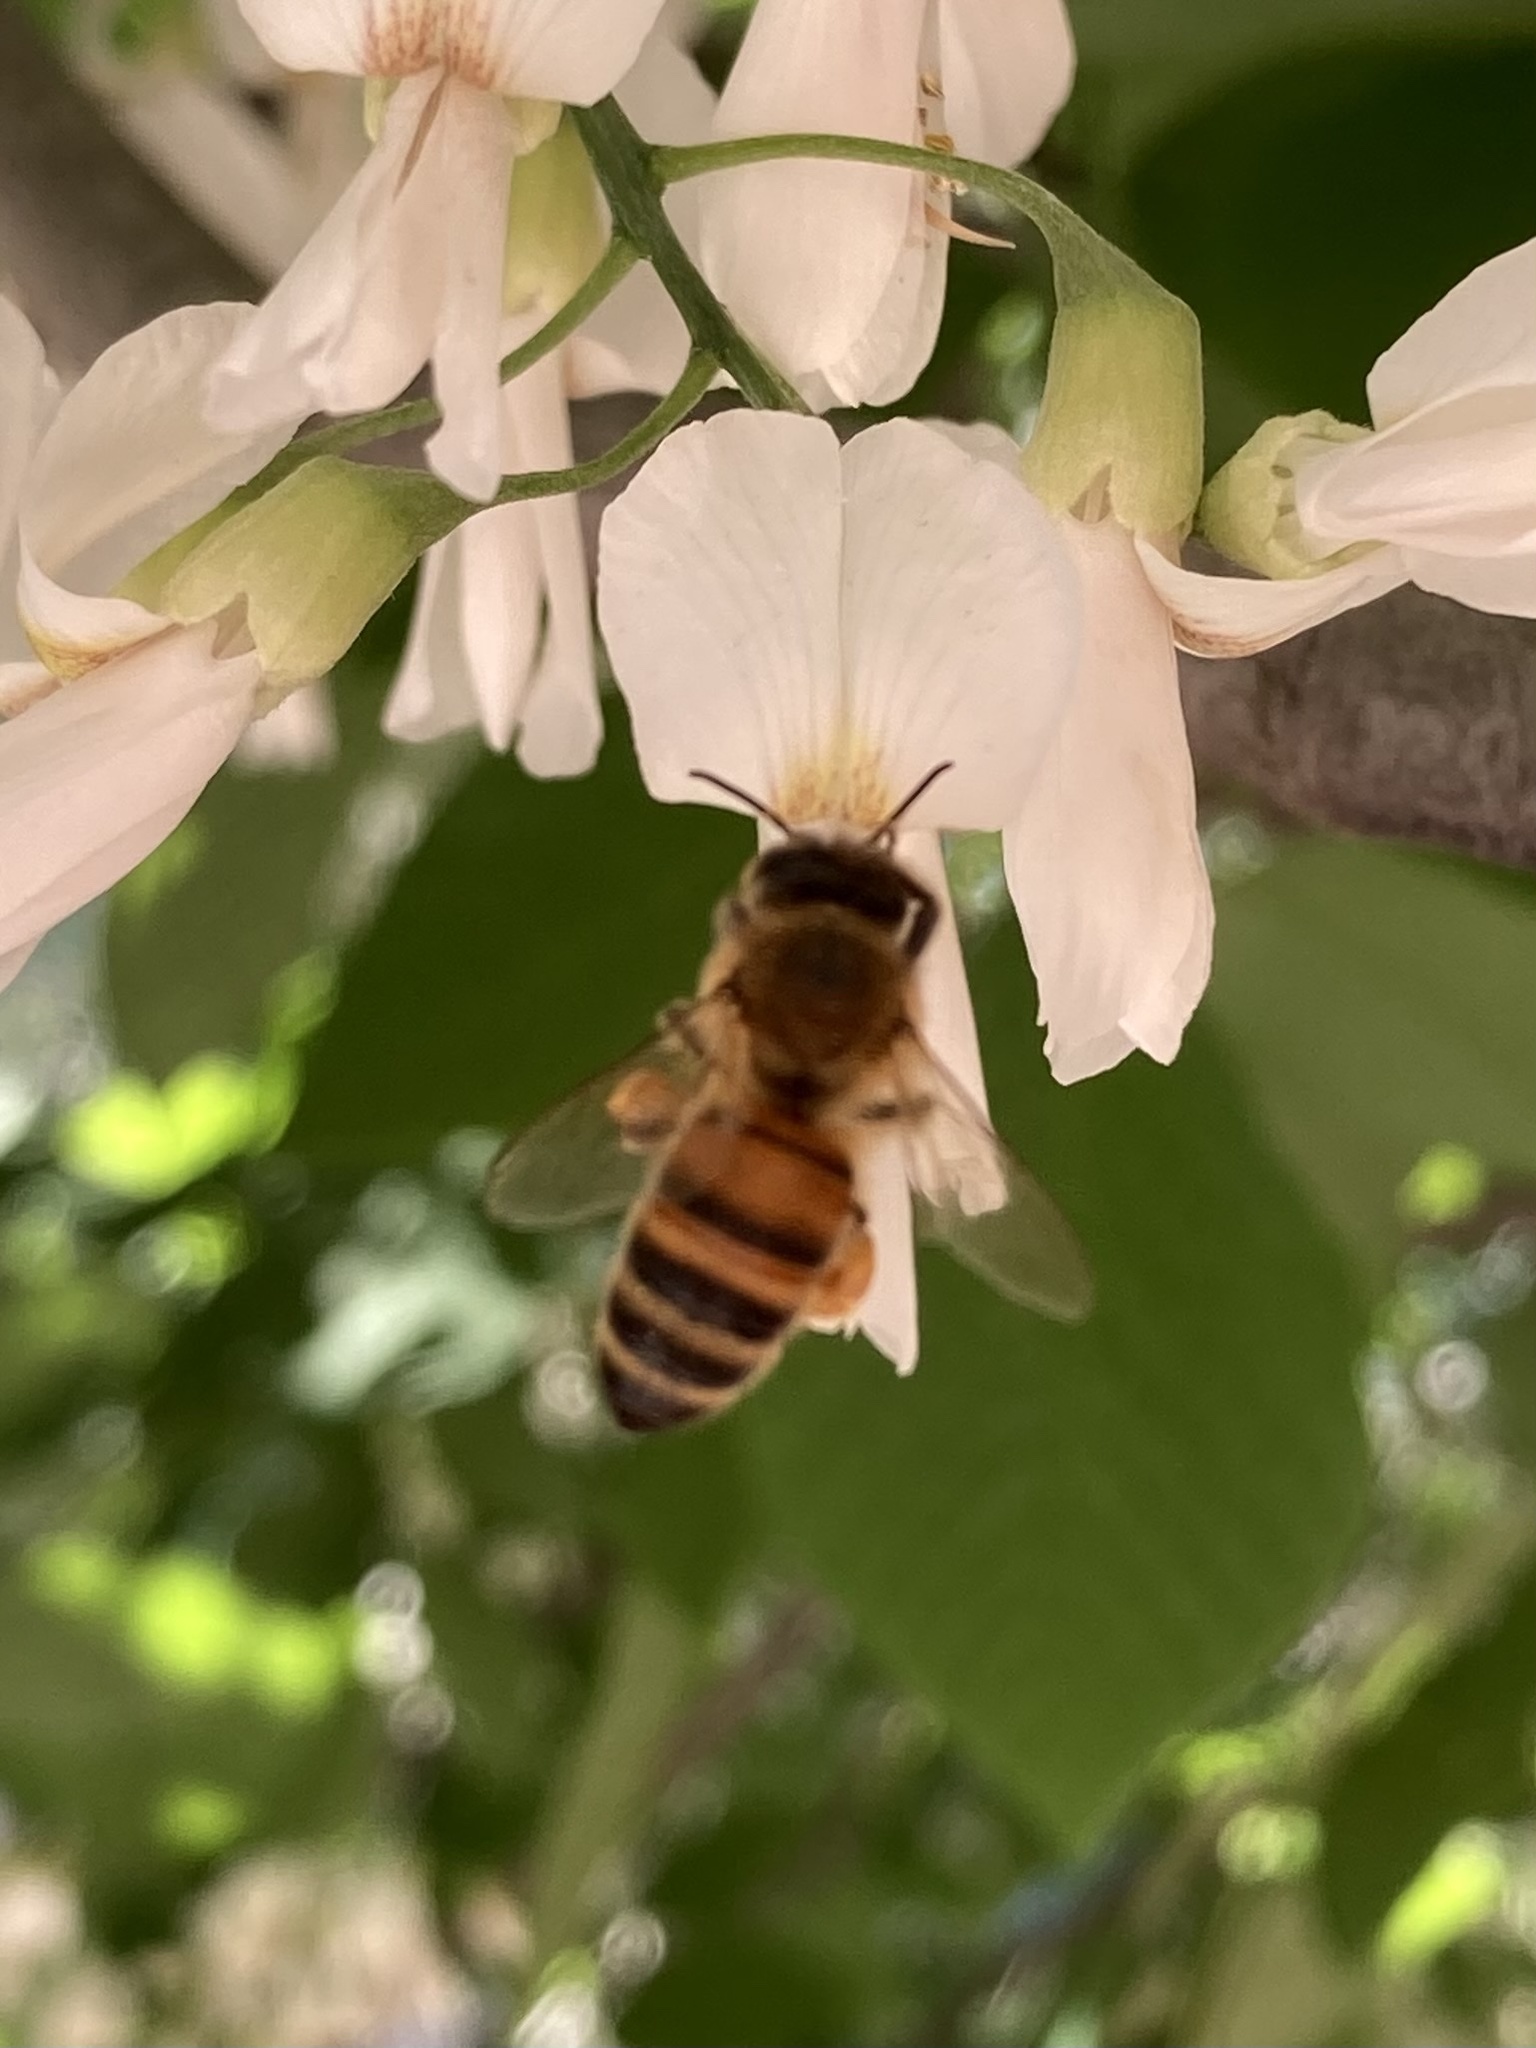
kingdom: Animalia
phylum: Arthropoda
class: Insecta
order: Hymenoptera
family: Apidae
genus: Apis
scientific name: Apis mellifera
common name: Honey bee
